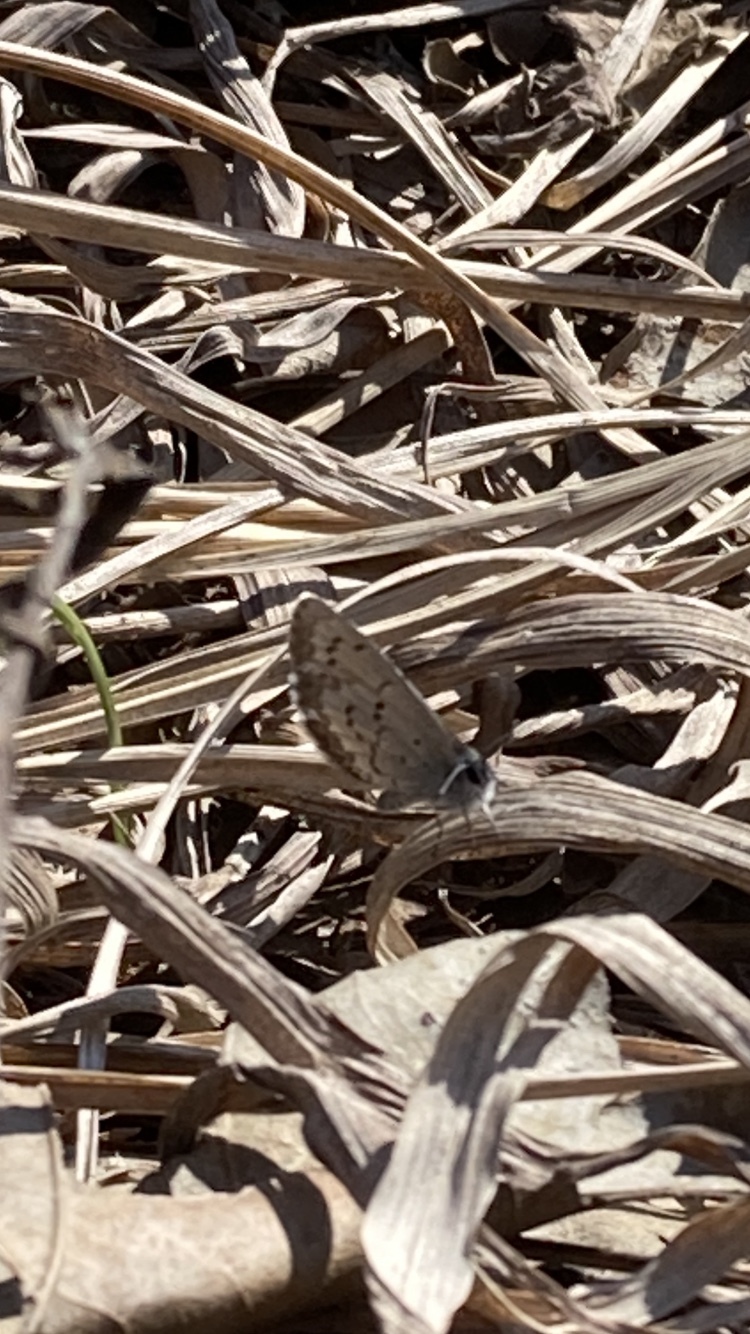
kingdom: Animalia
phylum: Arthropoda
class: Insecta
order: Lepidoptera
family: Lycaenidae
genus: Celastrina
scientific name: Celastrina lucia
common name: Lucia azure
